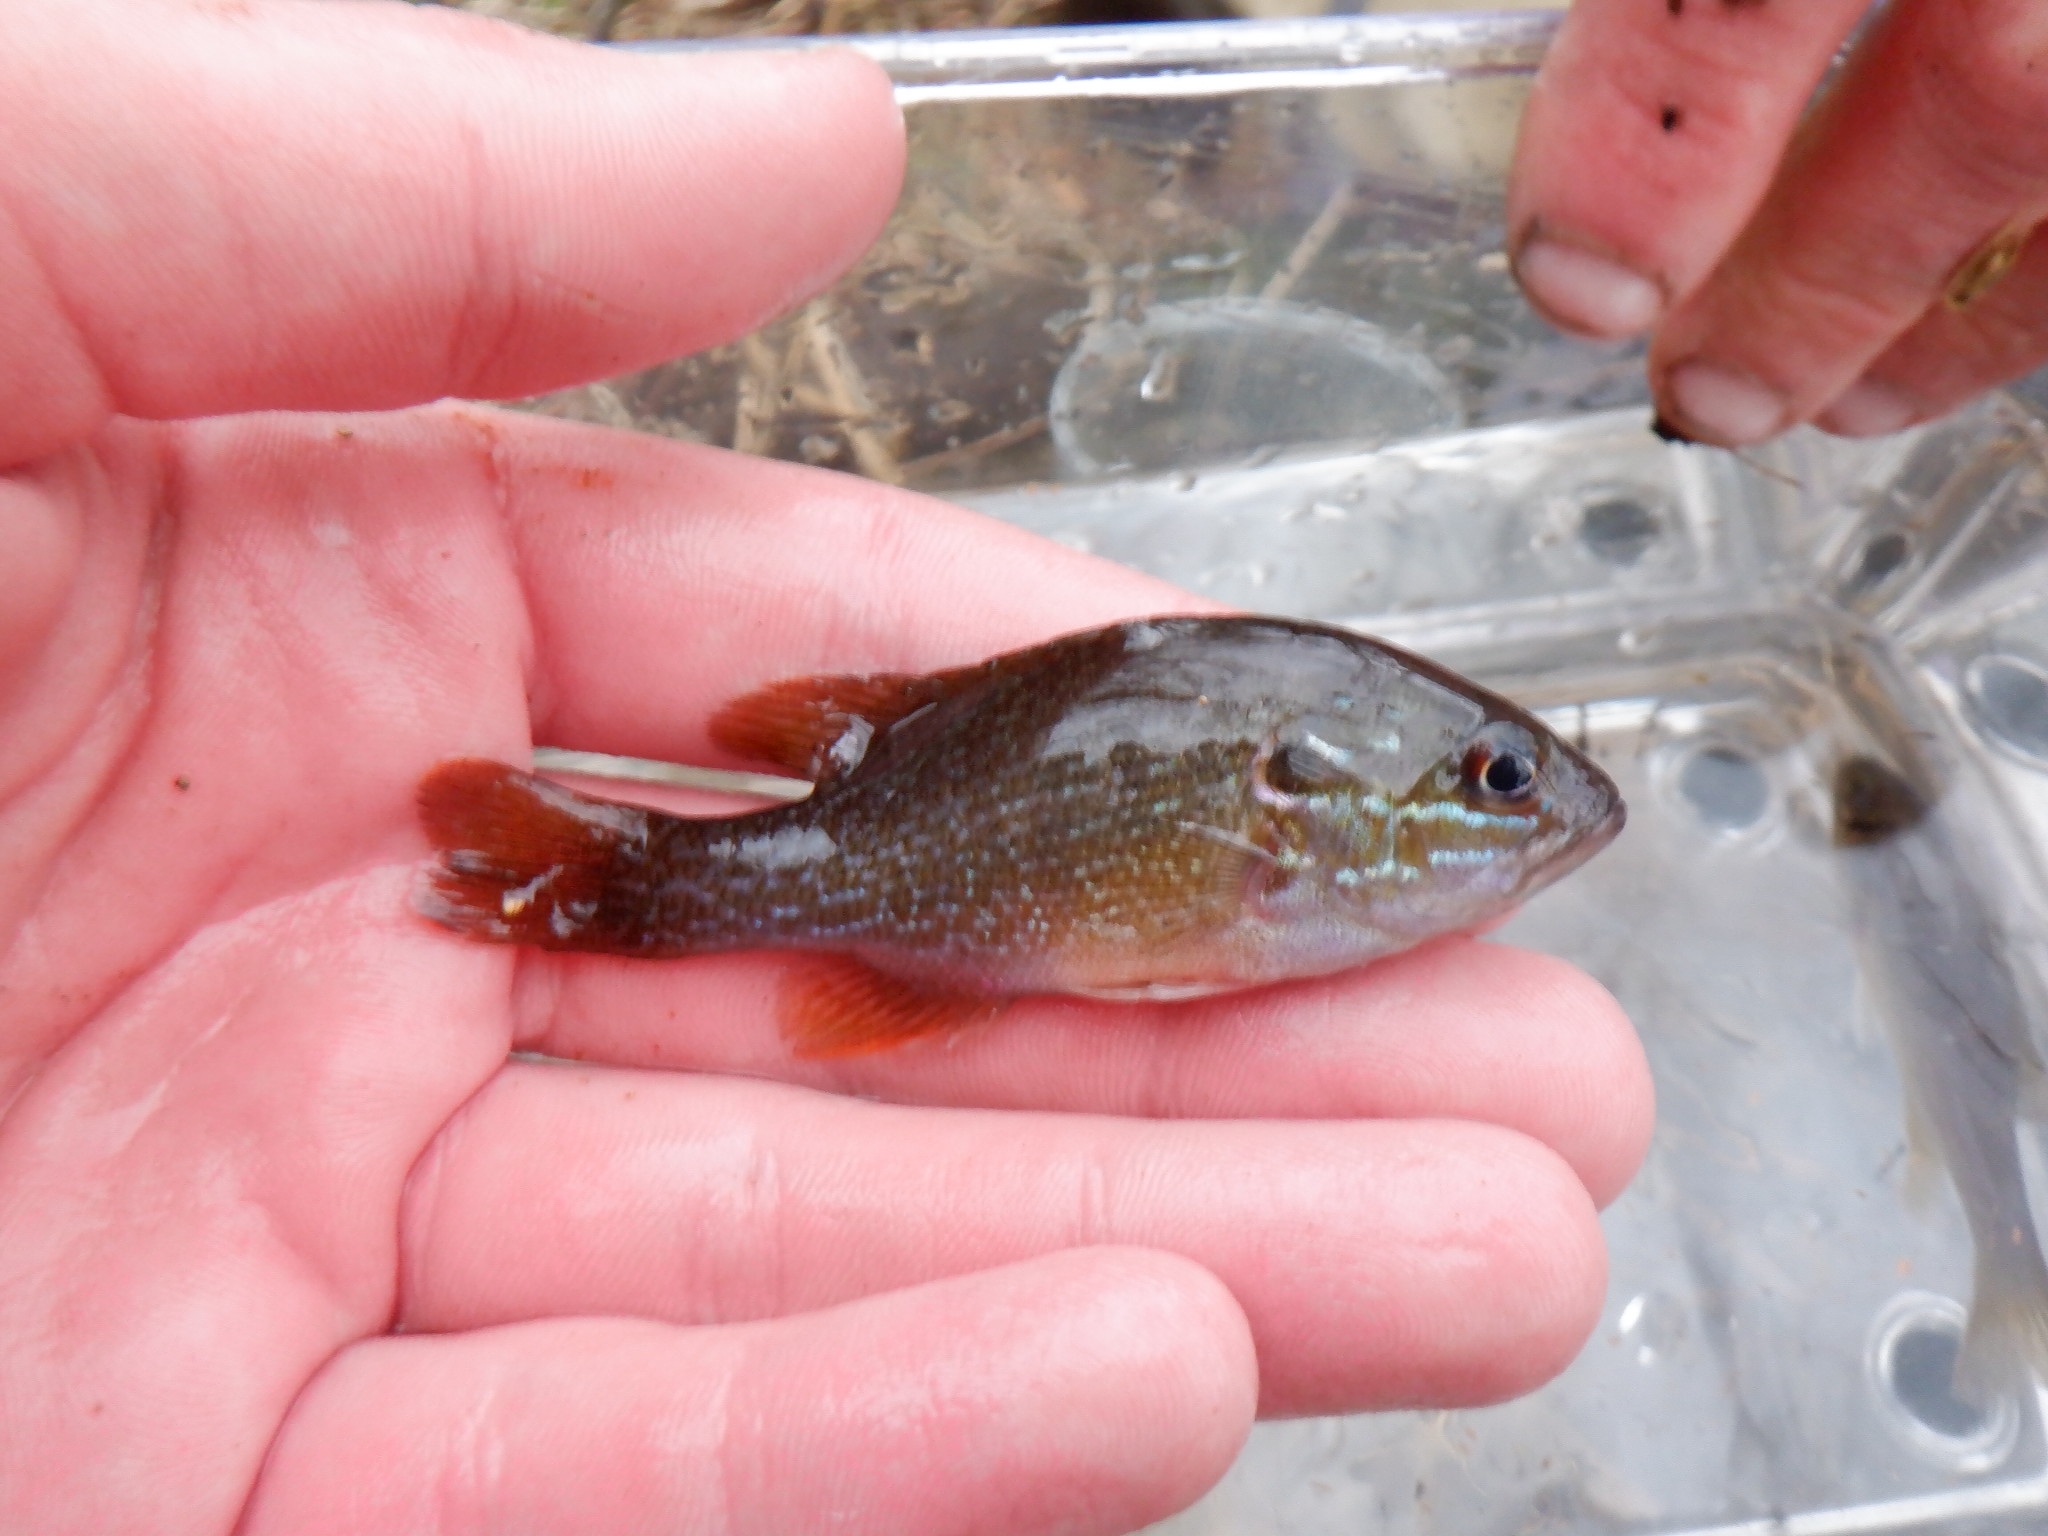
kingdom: Animalia
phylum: Chordata
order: Perciformes
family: Centrarchidae
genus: Lepomis
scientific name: Lepomis cyanellus
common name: Green sunfish
